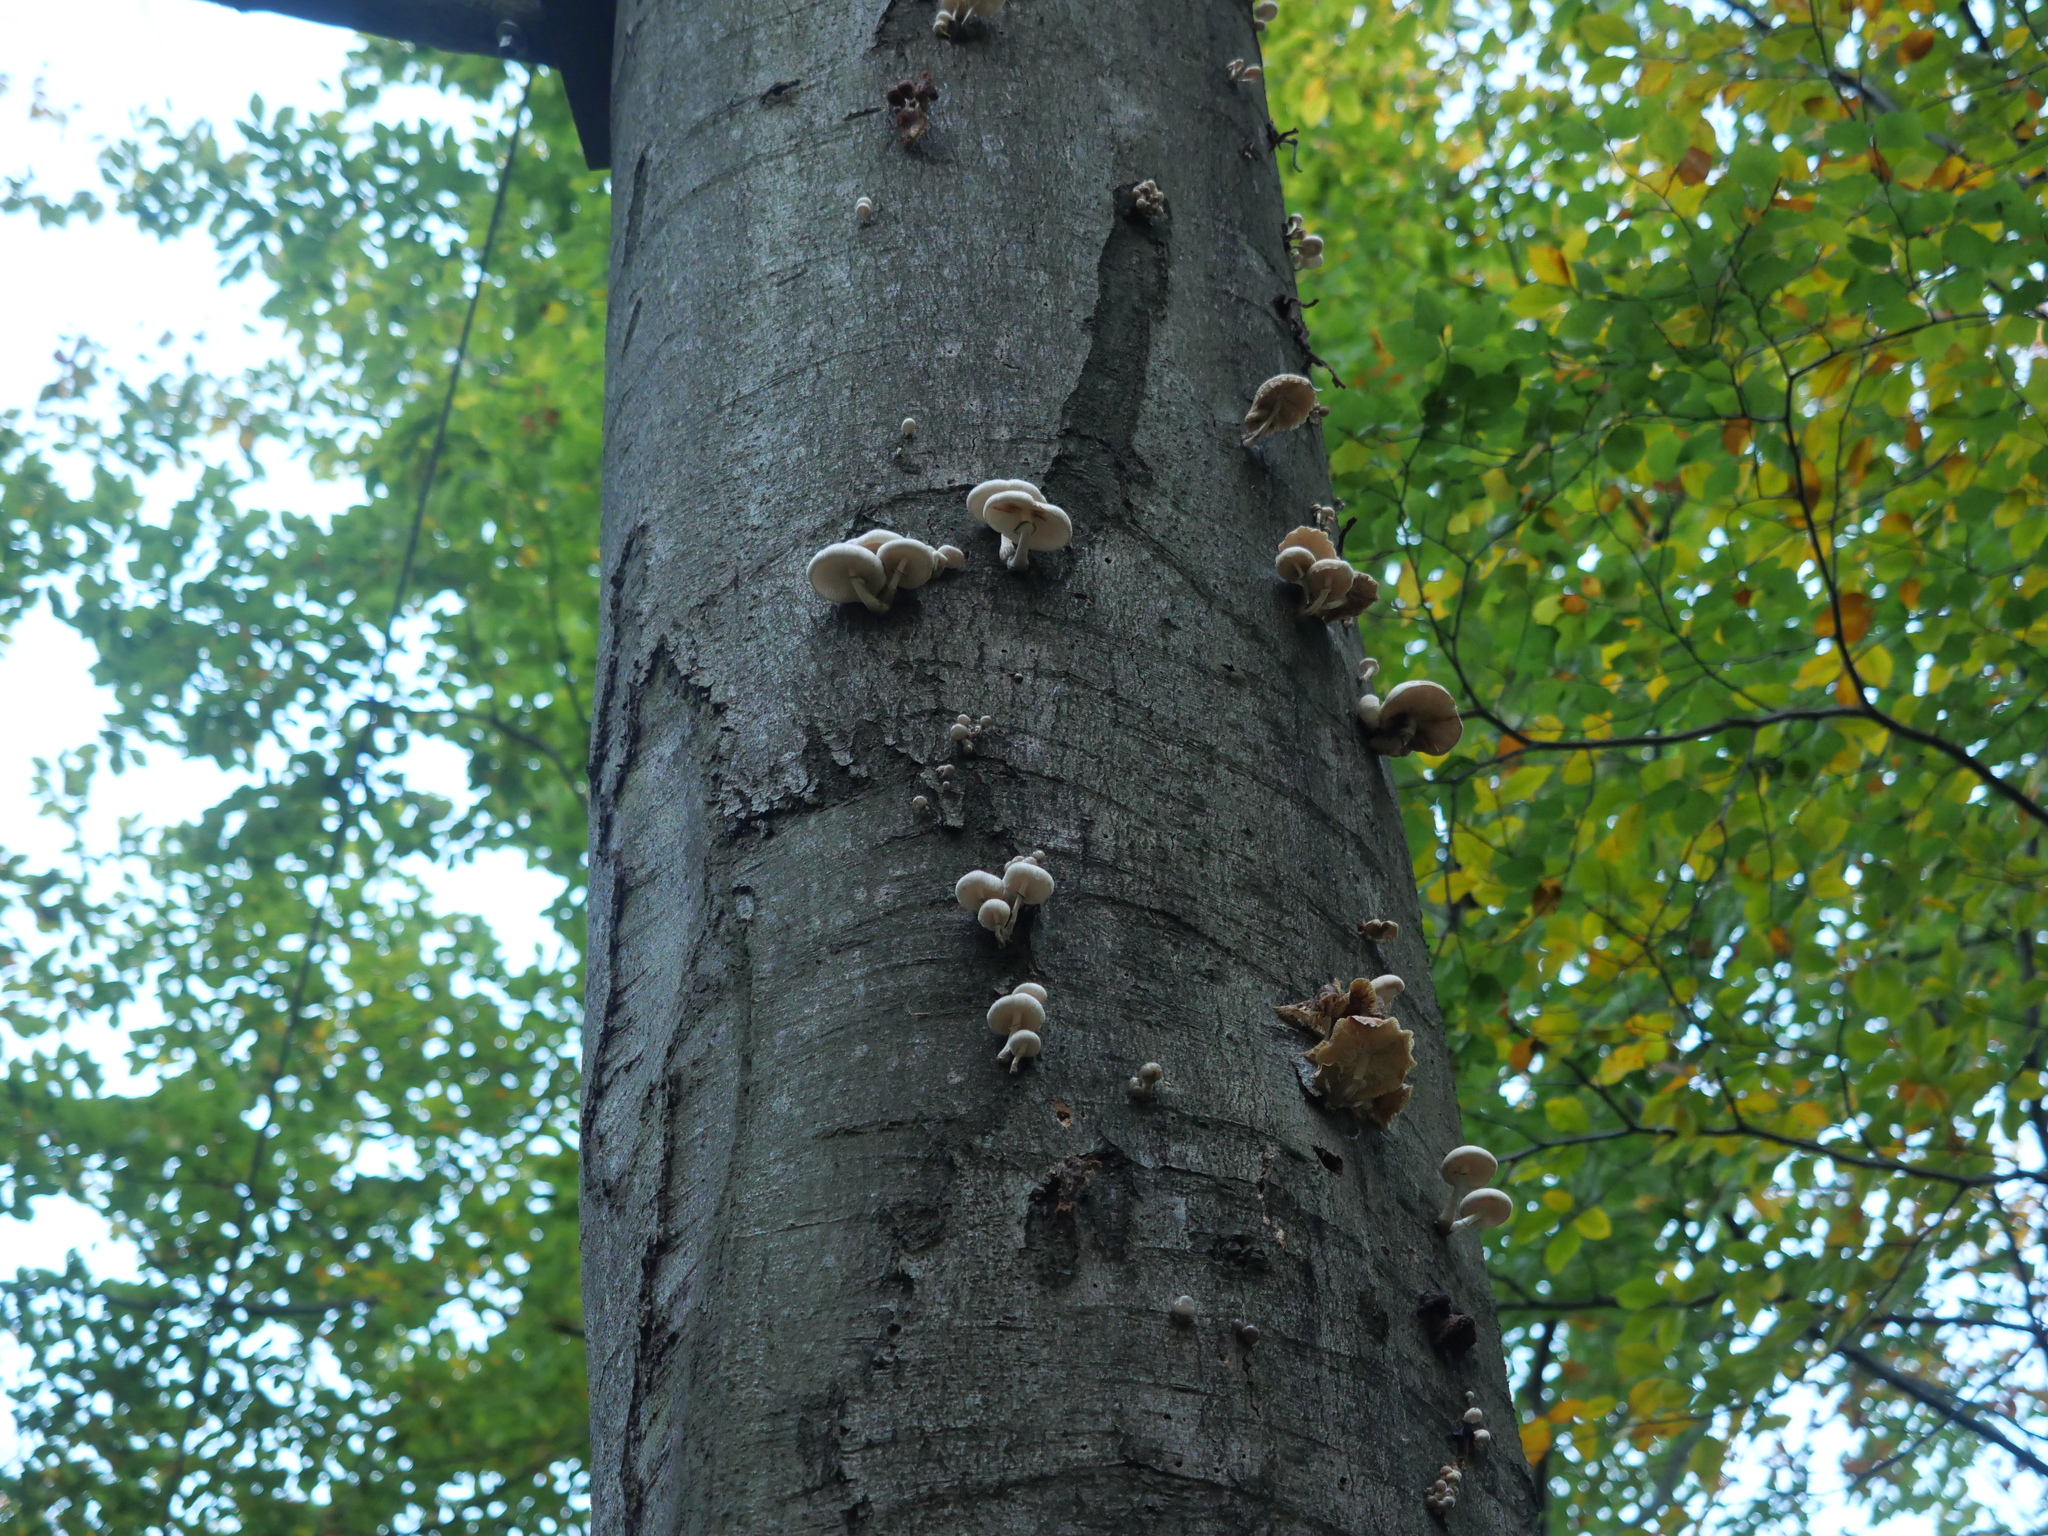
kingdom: Fungi
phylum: Basidiomycota
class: Agaricomycetes
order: Agaricales
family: Physalacriaceae
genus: Mucidula
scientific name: Mucidula mucida
